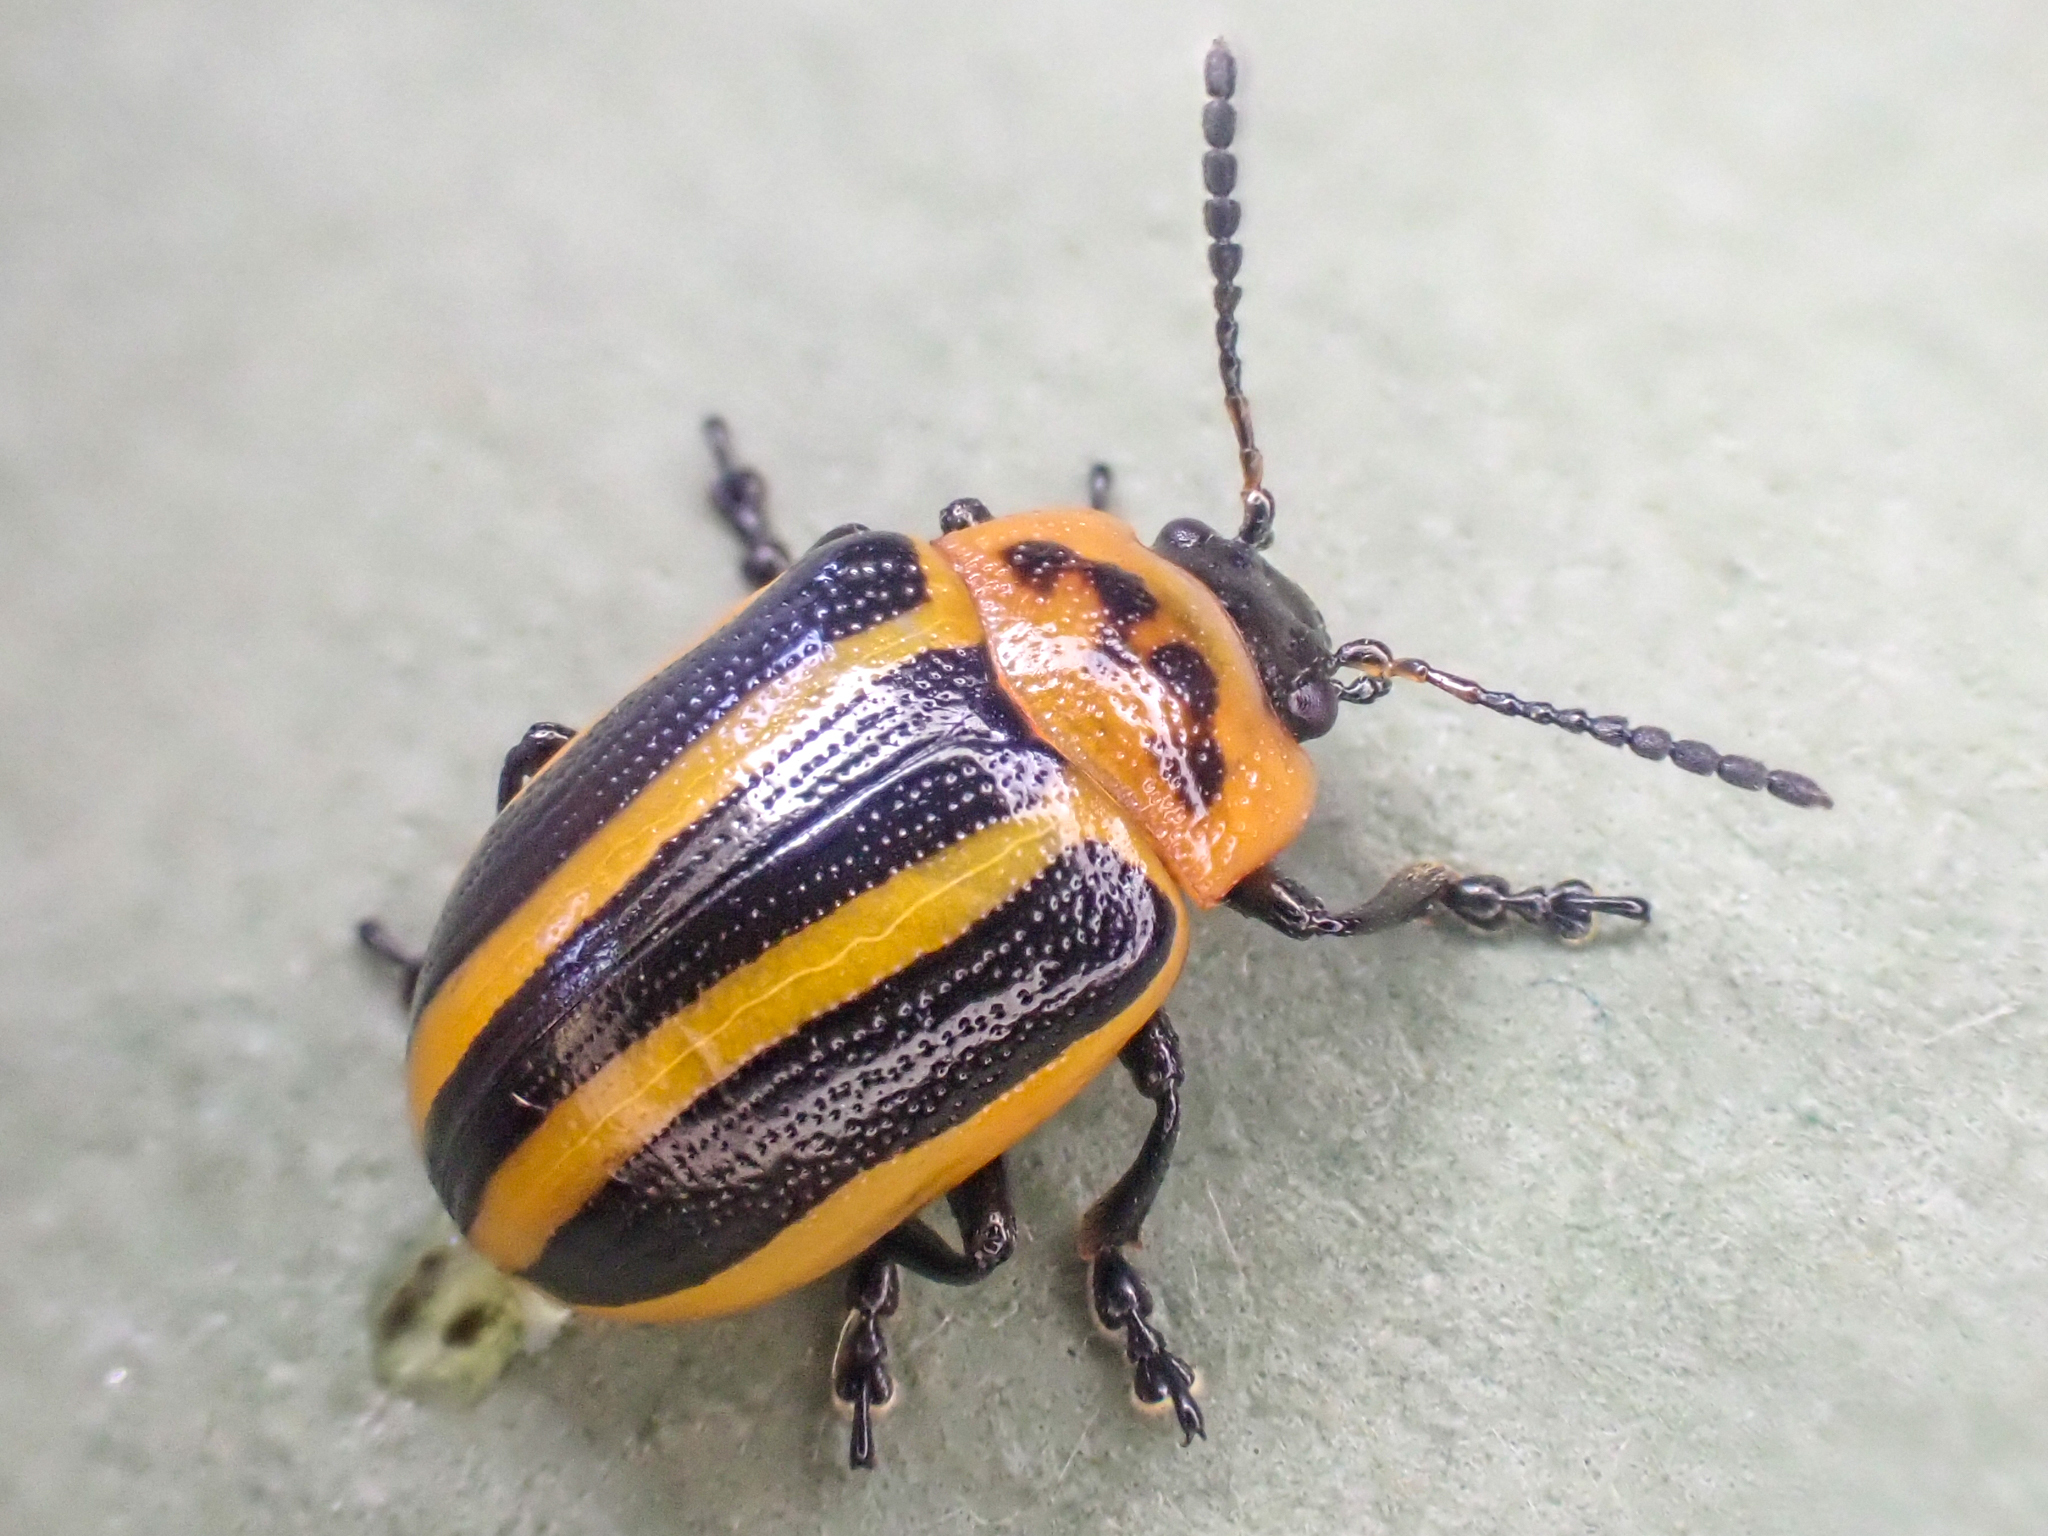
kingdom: Animalia
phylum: Arthropoda
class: Insecta
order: Coleoptera
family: Chrysomelidae
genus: Calligrapha
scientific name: Calligrapha californica
